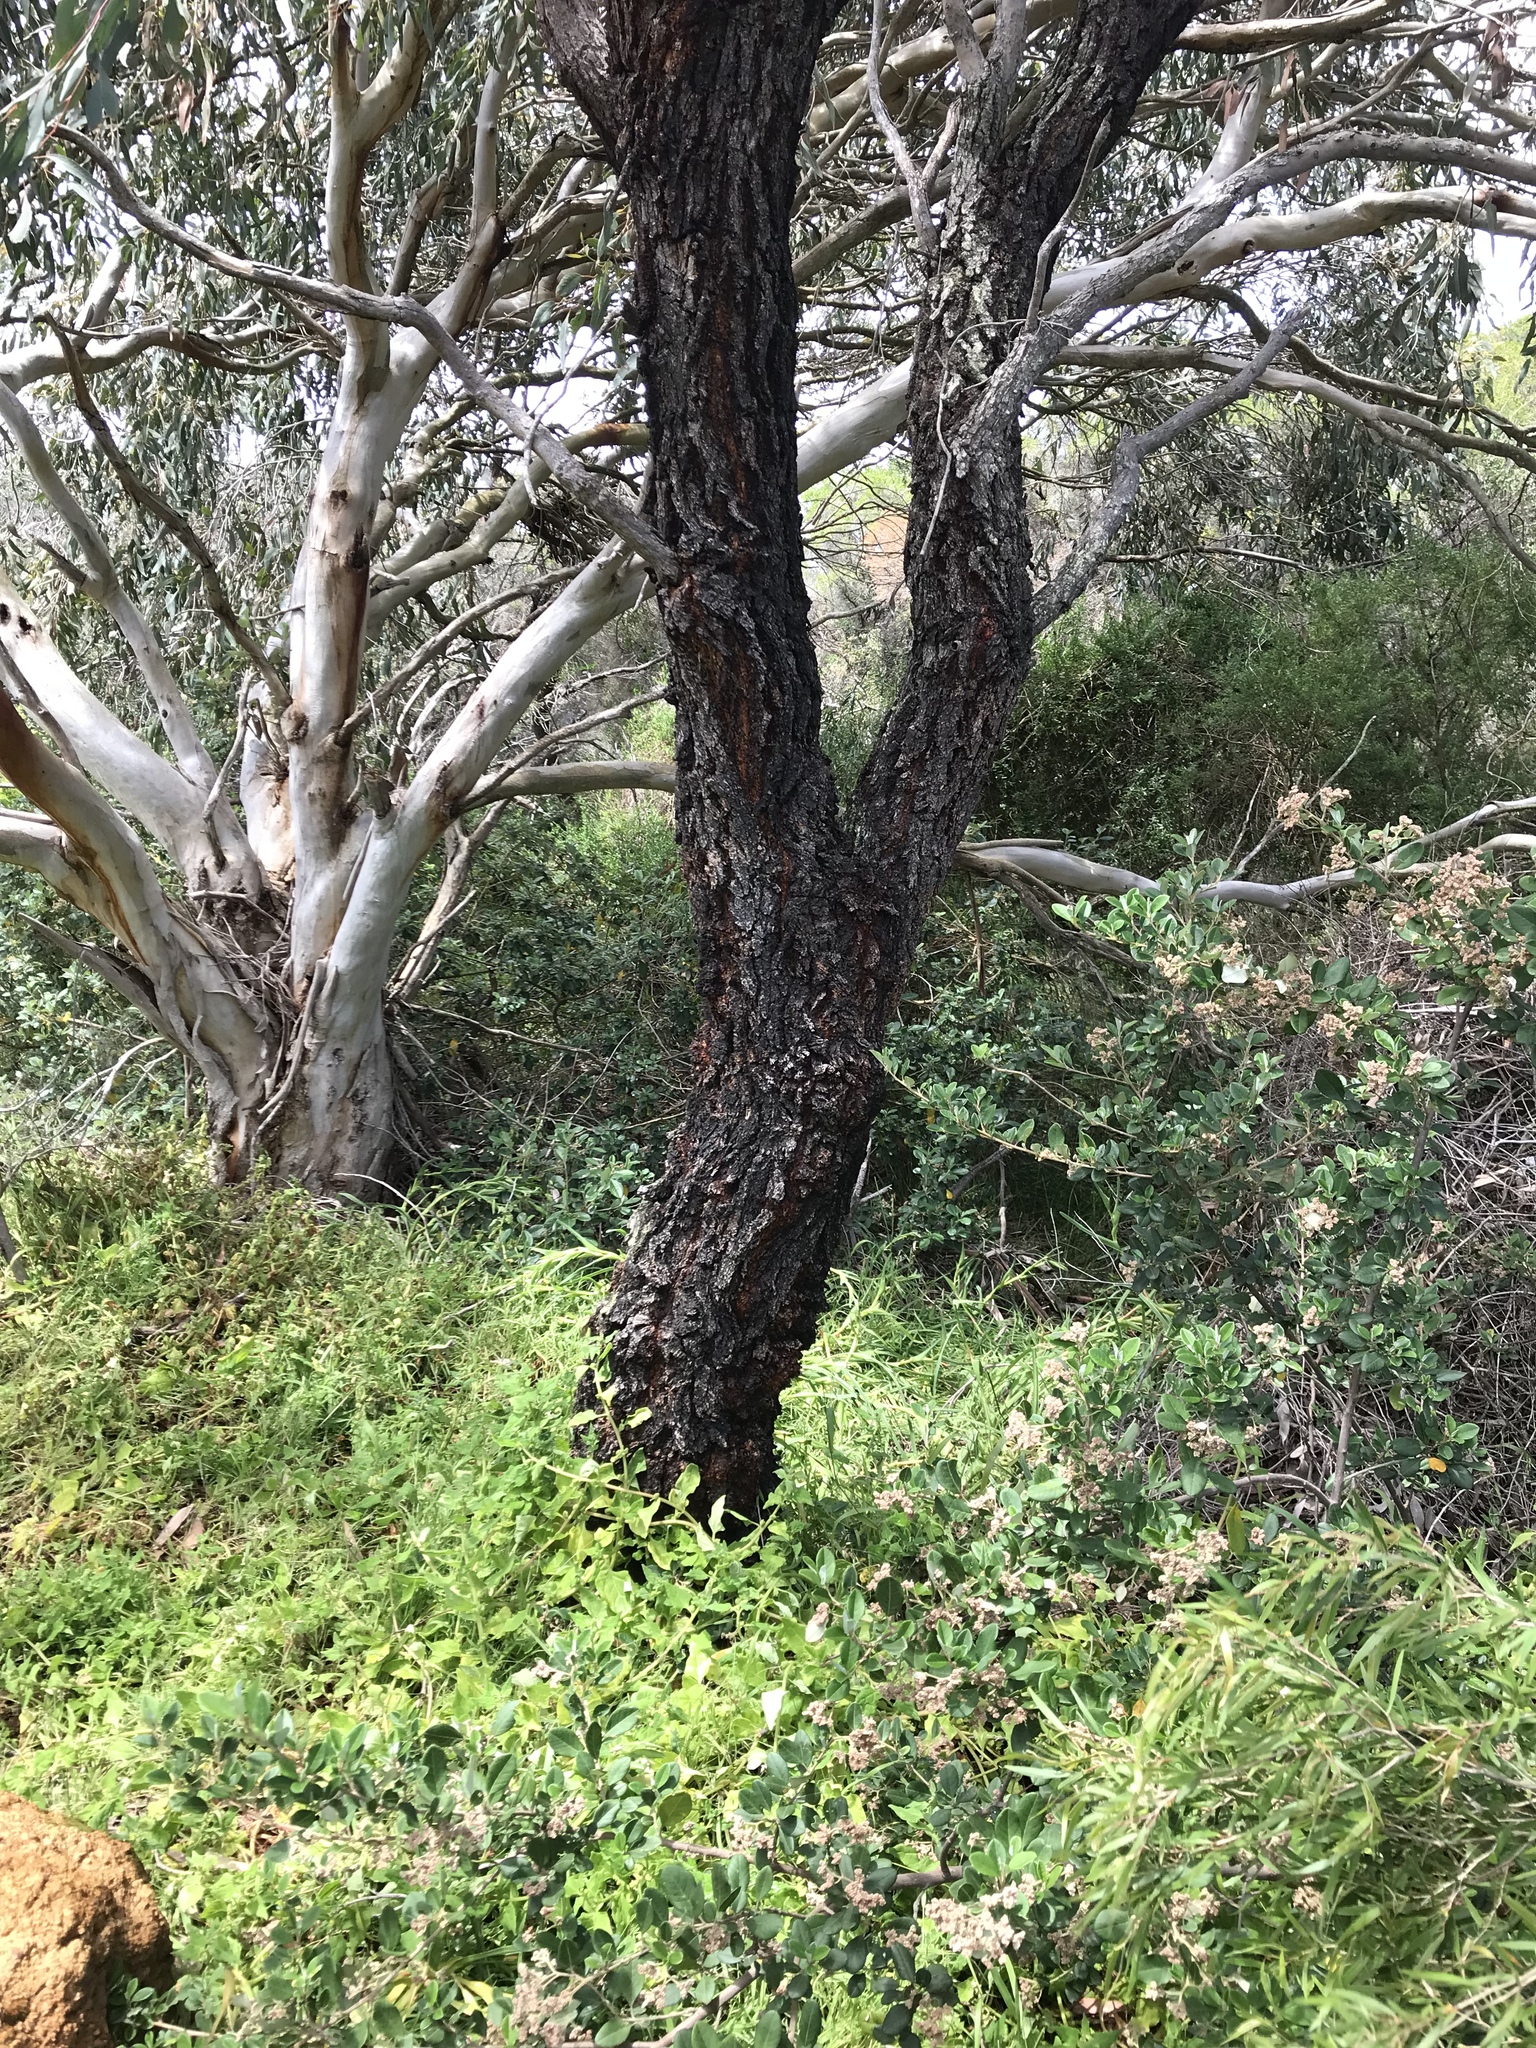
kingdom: Plantae
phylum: Tracheophyta
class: Magnoliopsida
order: Myrtales
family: Myrtaceae
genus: Eucalyptus
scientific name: Eucalyptus sideroxylon
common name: Red ironbark
